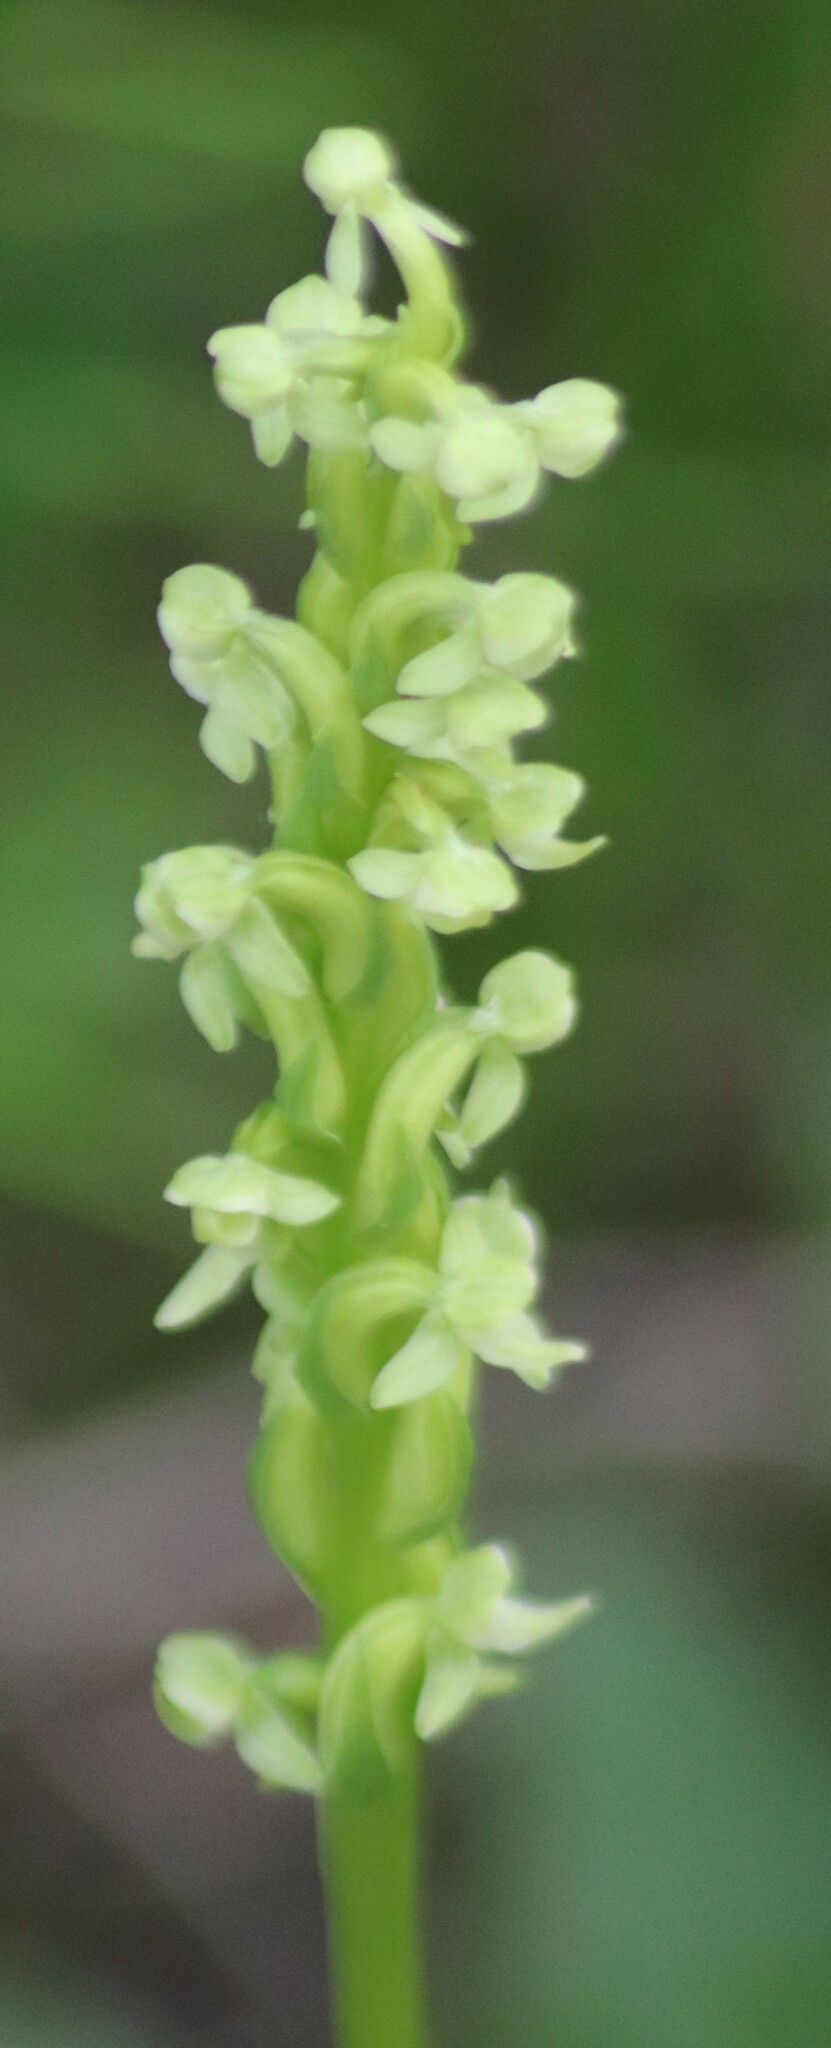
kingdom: Plantae
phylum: Tracheophyta
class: Liliopsida
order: Asparagales
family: Orchidaceae
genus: Platanthera
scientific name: Platanthera huronensis
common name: Fragrant green orchid
